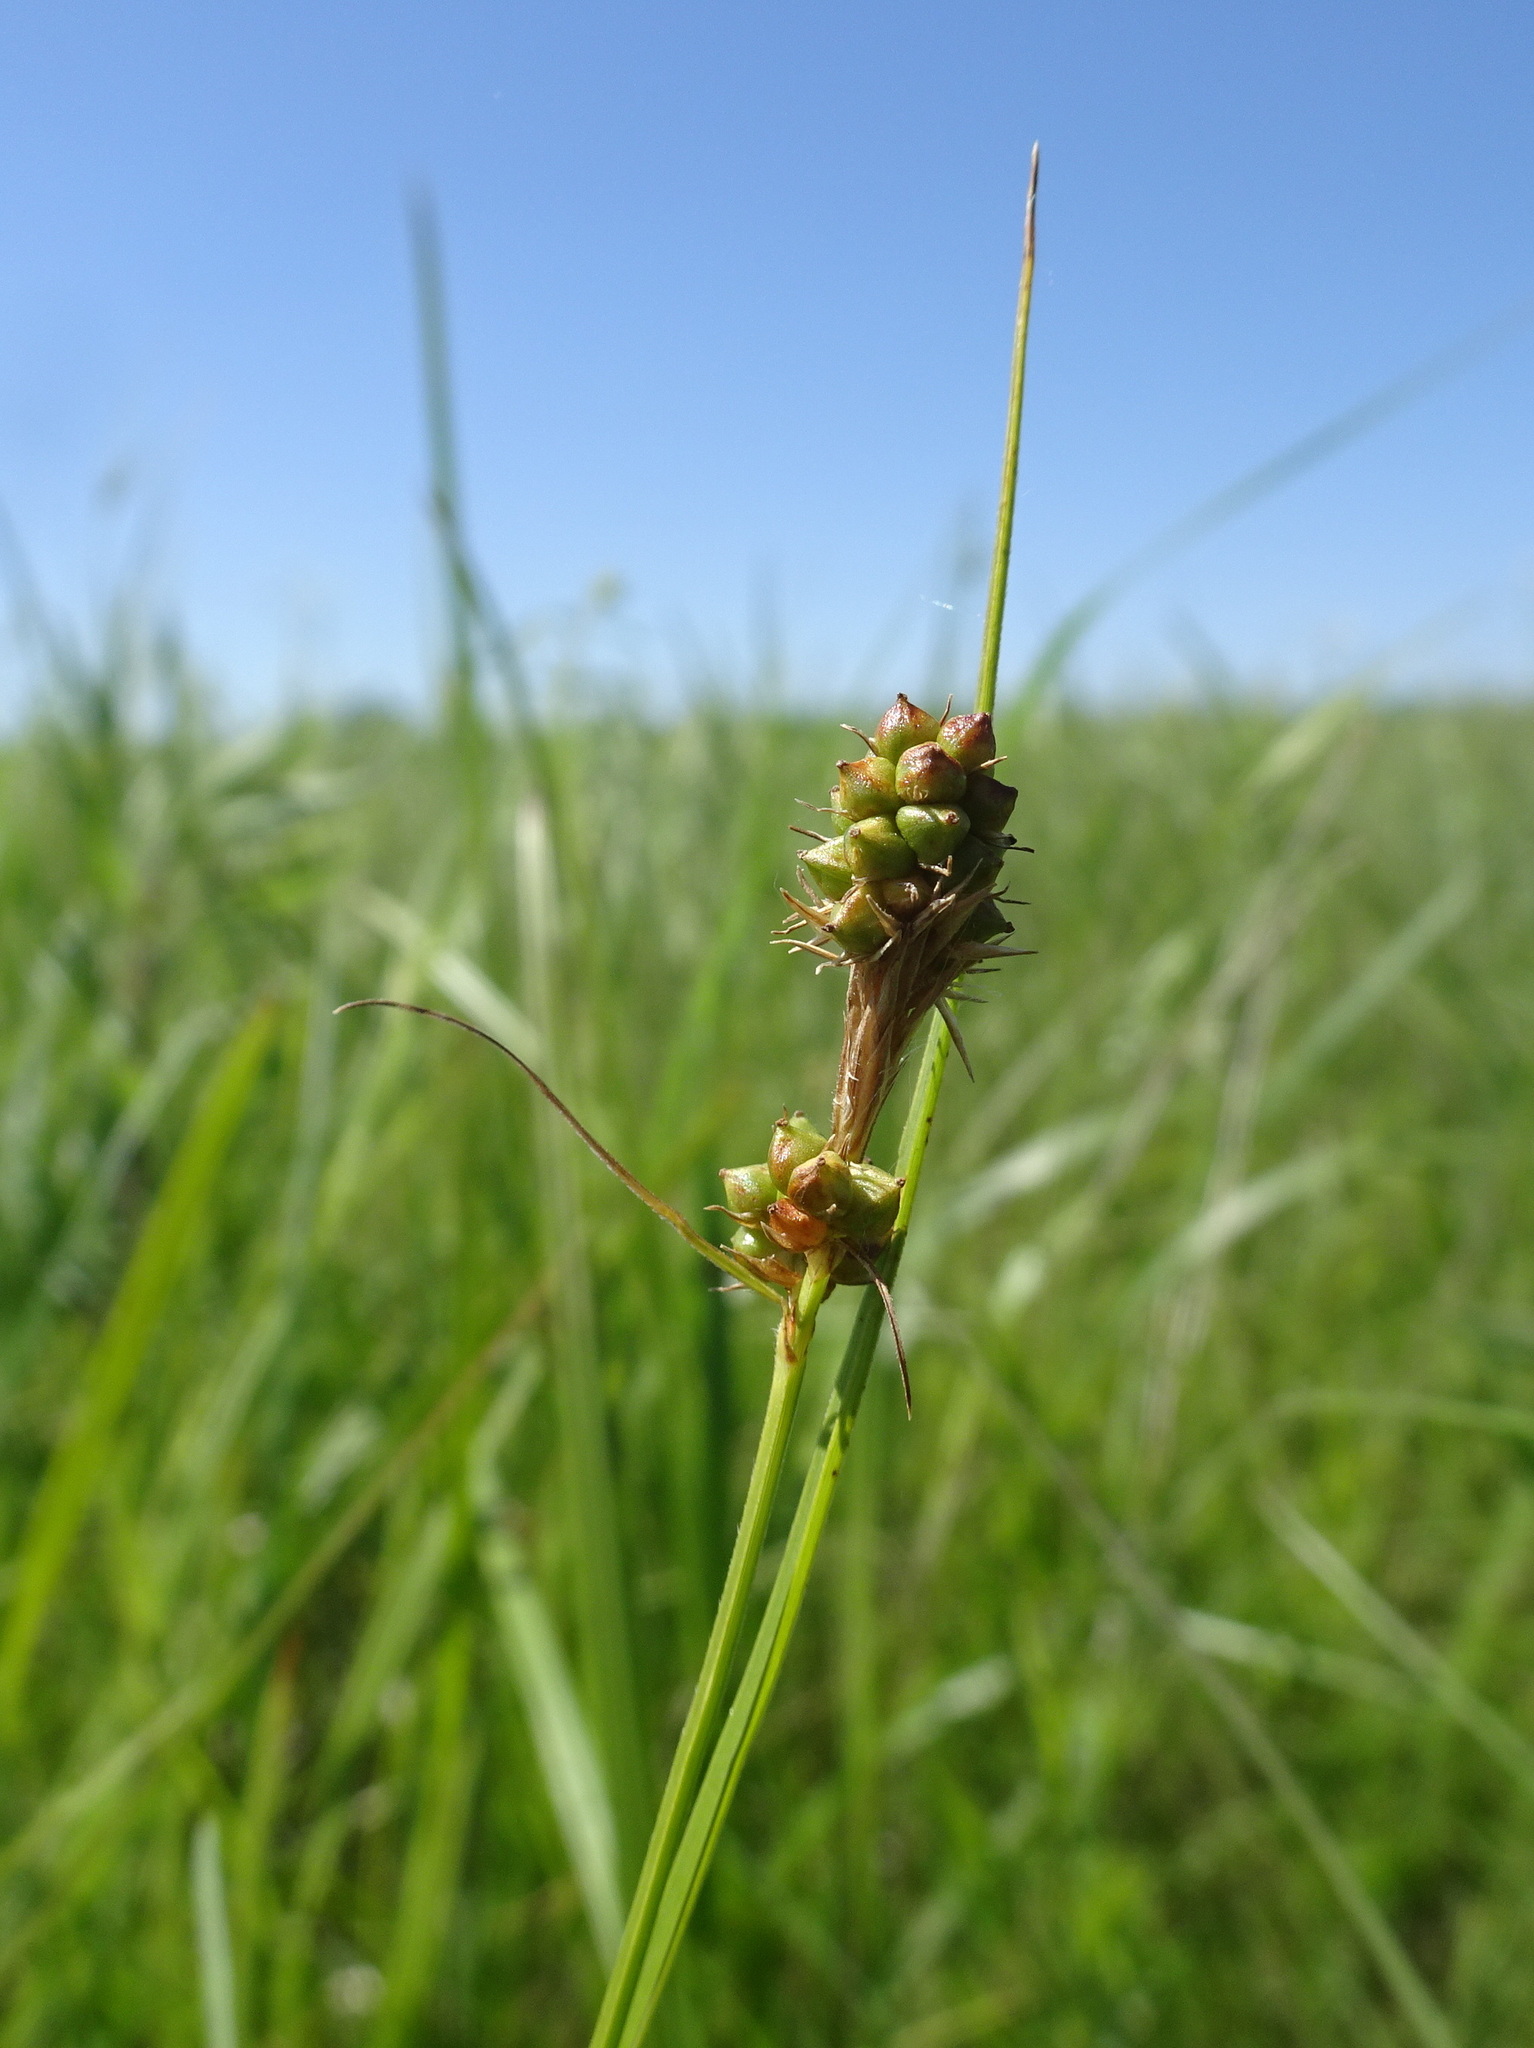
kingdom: Plantae
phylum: Tracheophyta
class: Liliopsida
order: Poales
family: Cyperaceae
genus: Carex
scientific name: Carex bushii
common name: Bush's sedge
